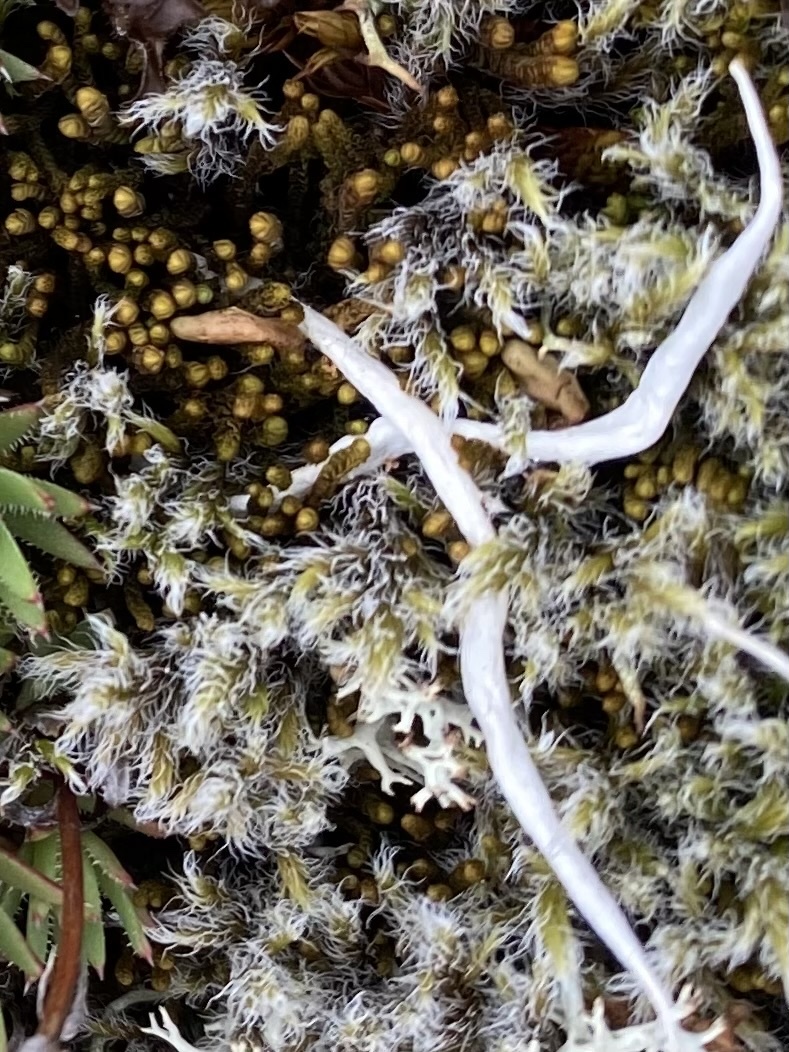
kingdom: Fungi
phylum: Ascomycota
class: Lecanoromycetes
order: Pertusariales
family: Icmadophilaceae
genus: Thamnolia
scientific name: Thamnolia vermicularis
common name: Whiteworm lichen
